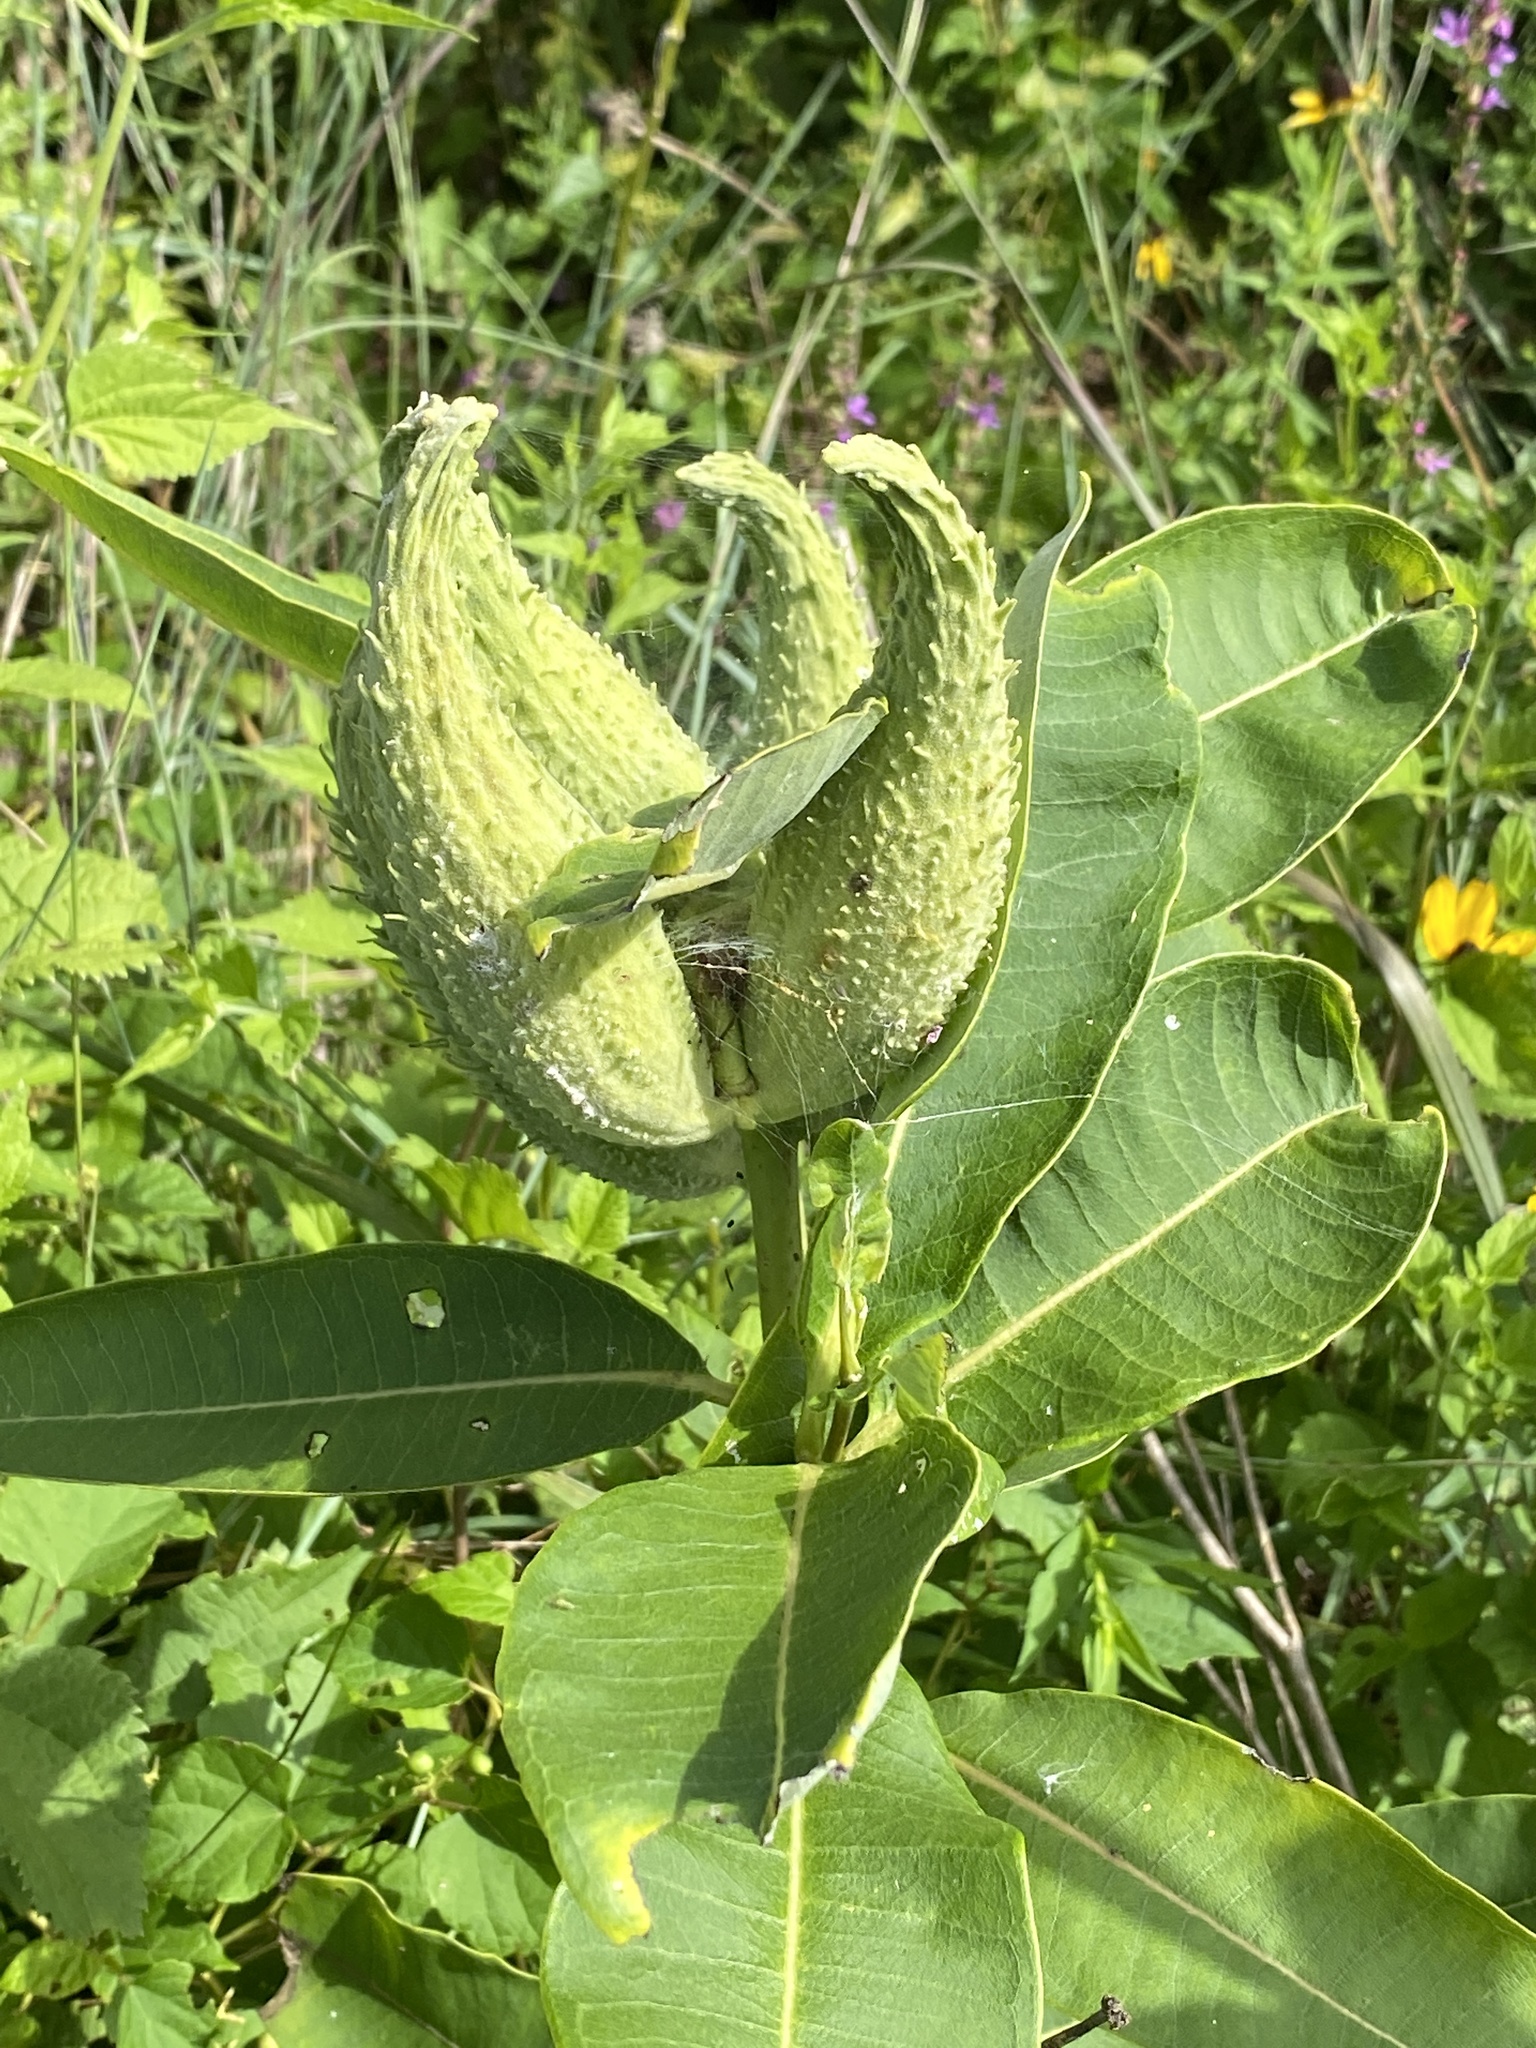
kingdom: Plantae
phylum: Tracheophyta
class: Magnoliopsida
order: Gentianales
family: Apocynaceae
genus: Asclepias
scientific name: Asclepias syriaca
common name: Common milkweed
